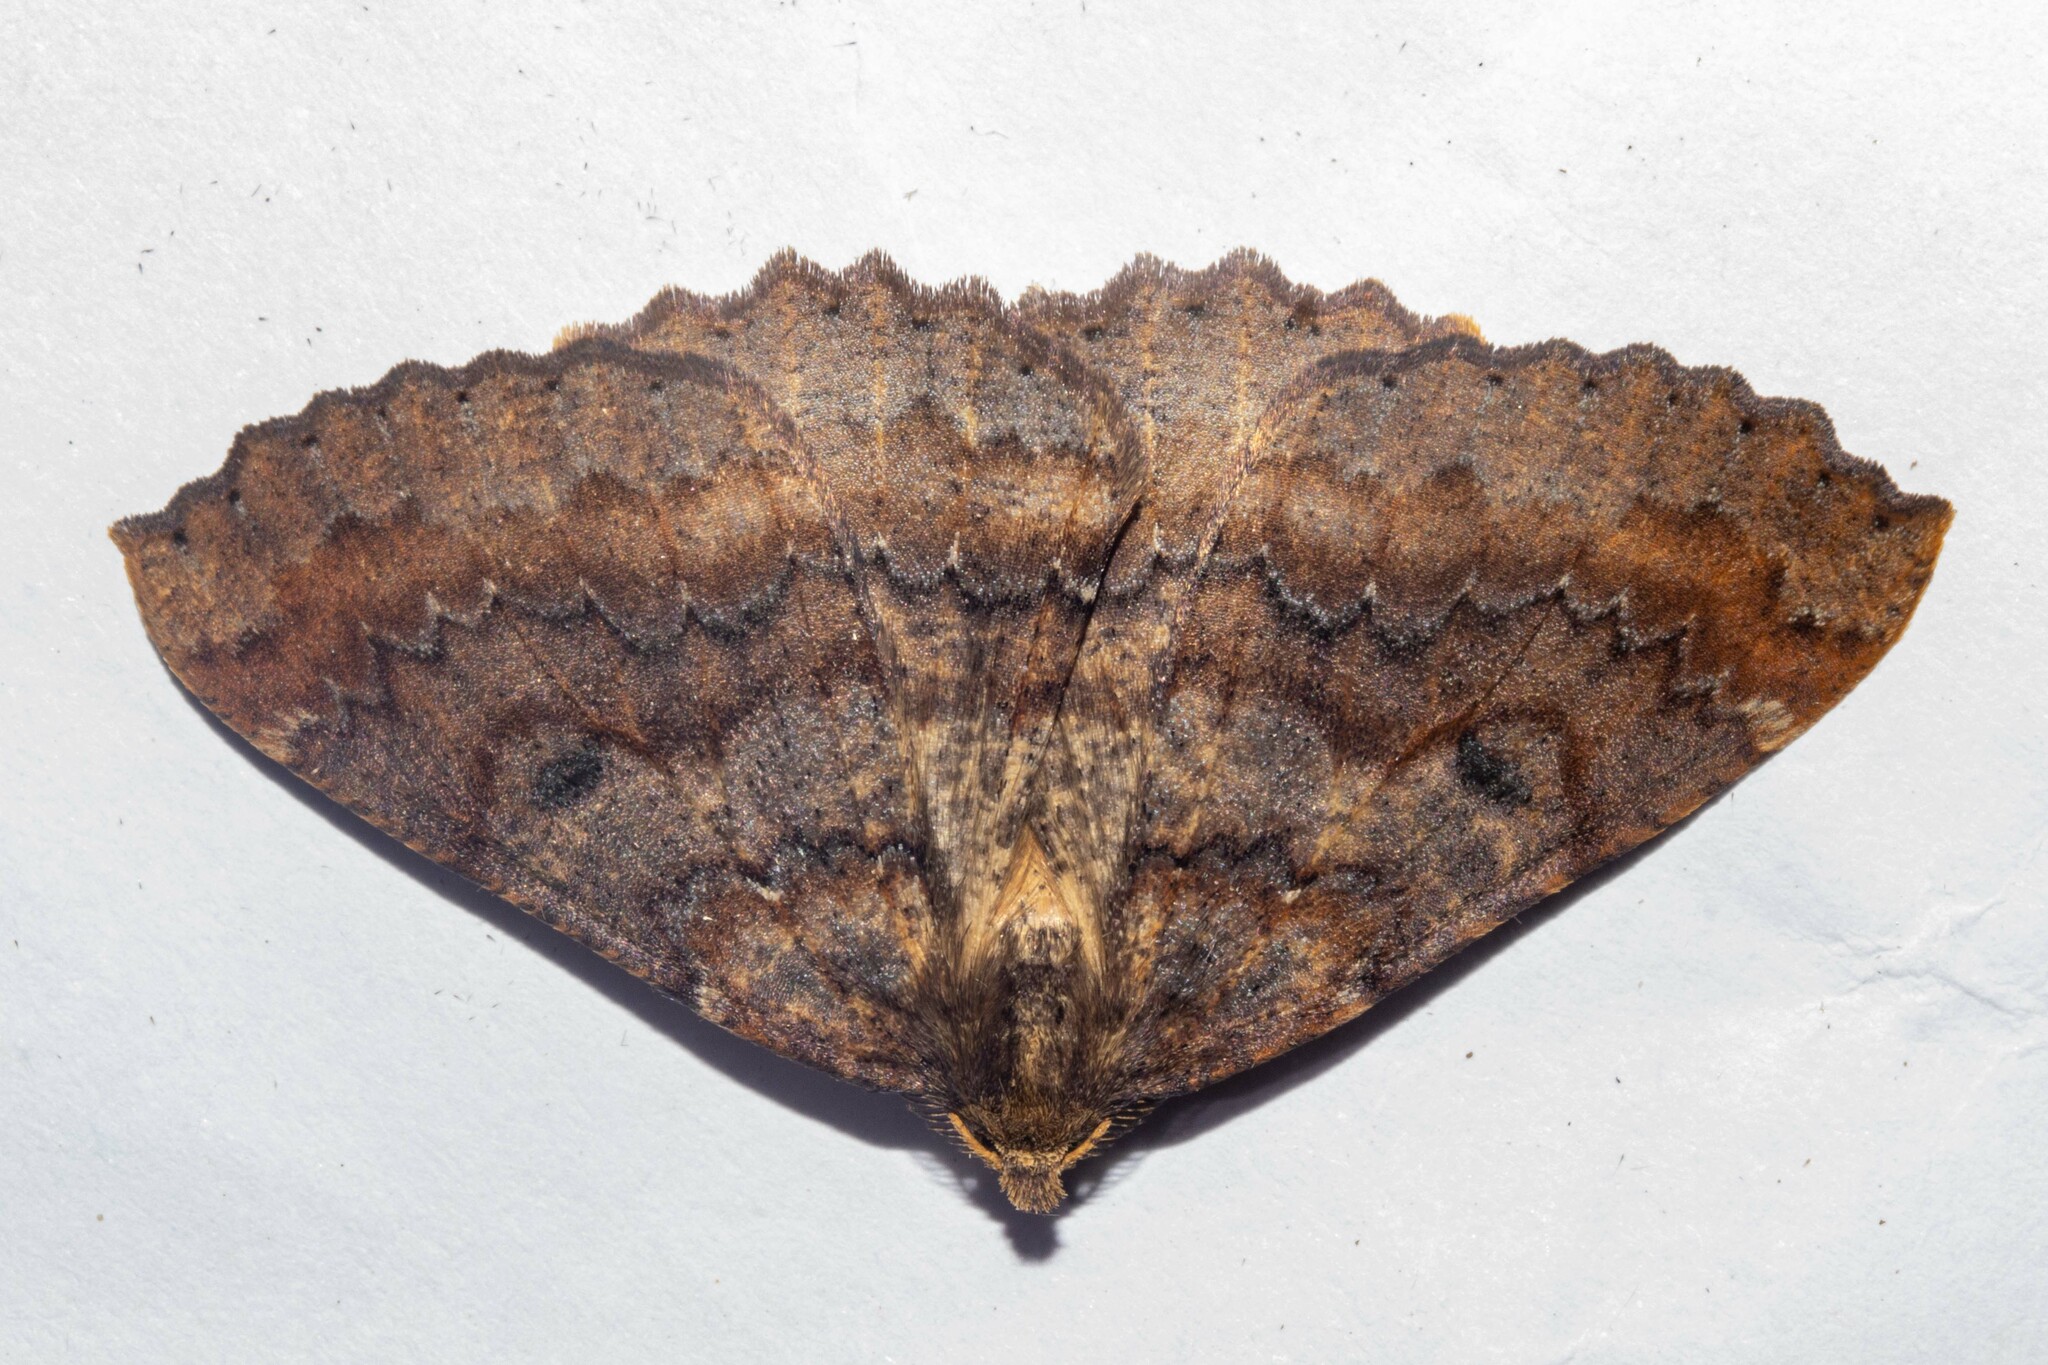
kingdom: Animalia
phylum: Arthropoda
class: Insecta
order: Lepidoptera
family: Geometridae
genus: Cleora
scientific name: Cleora scriptaria
